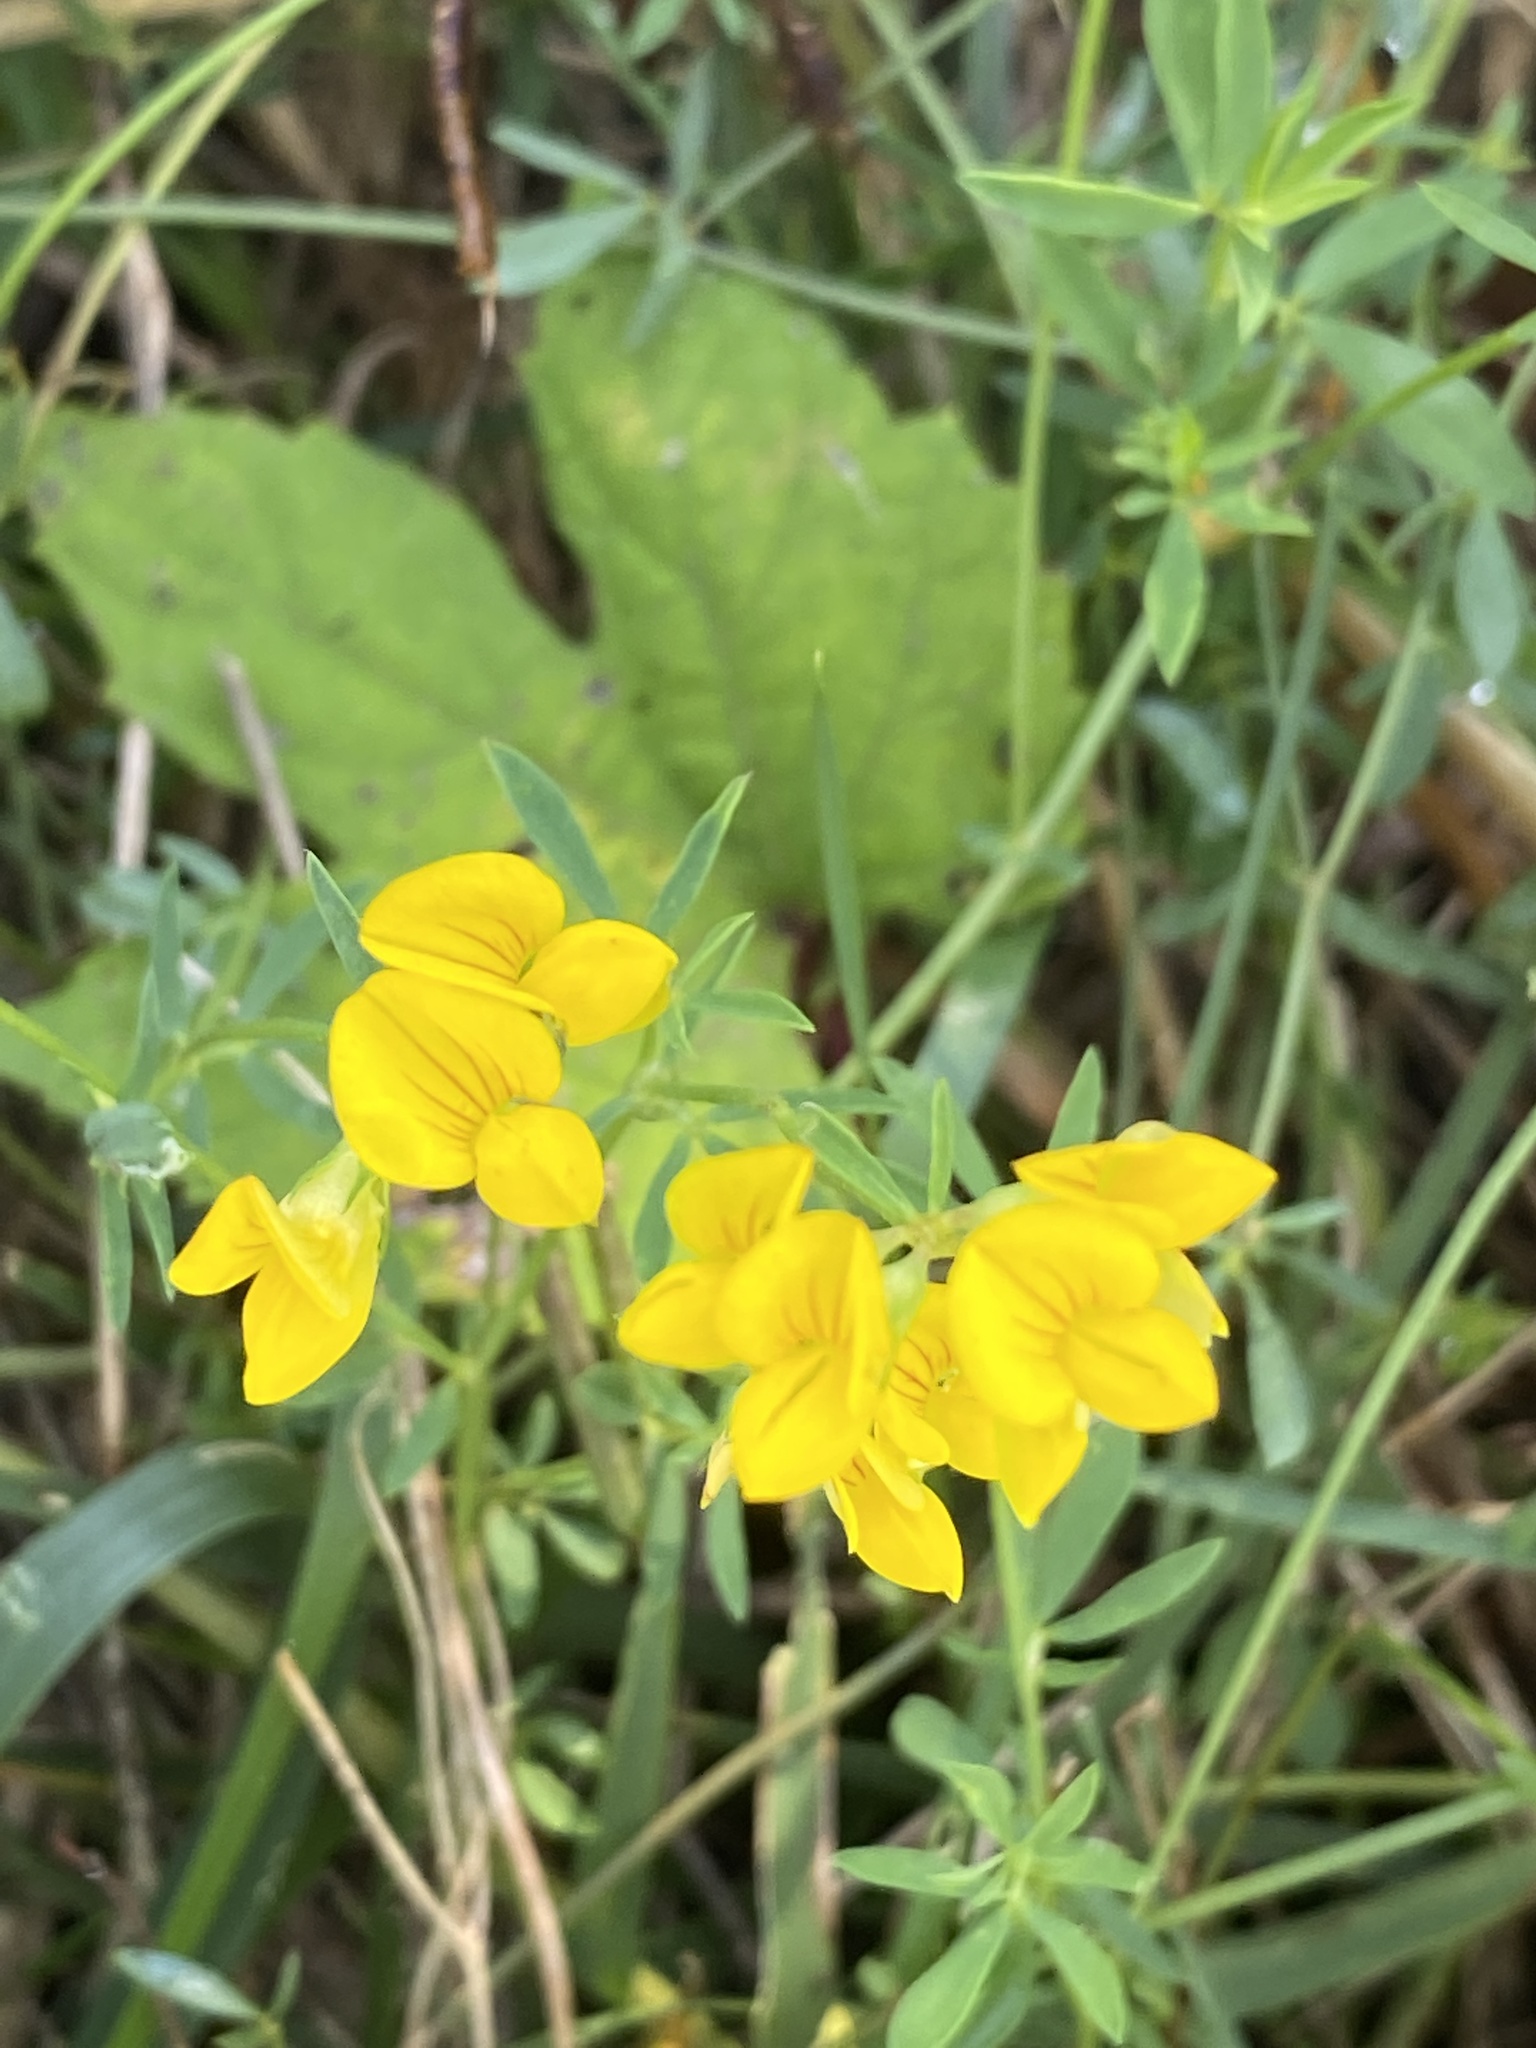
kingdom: Plantae
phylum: Tracheophyta
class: Magnoliopsida
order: Fabales
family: Fabaceae
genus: Lotus
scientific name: Lotus corniculatus
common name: Common bird's-foot-trefoil
